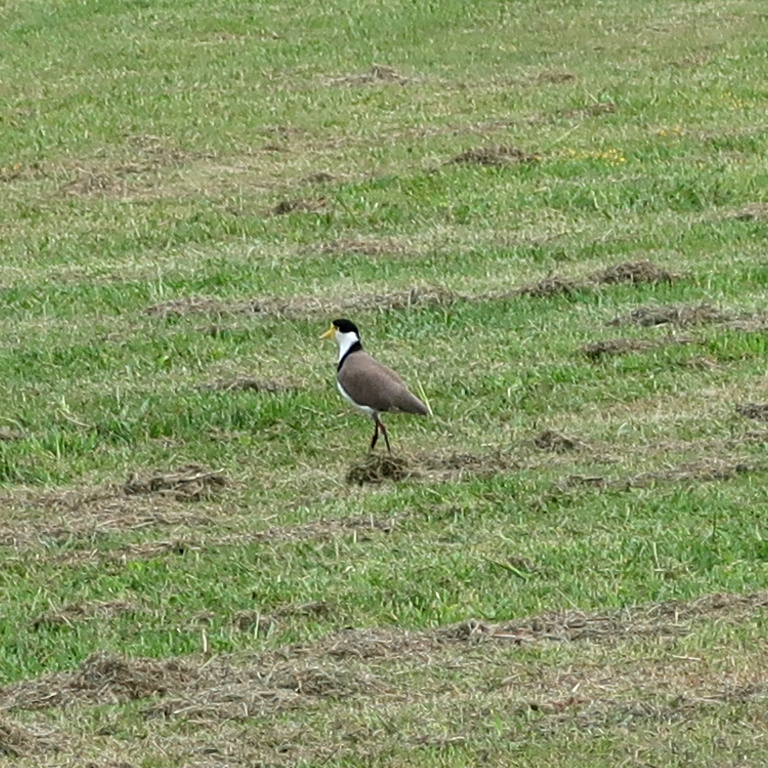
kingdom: Animalia
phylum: Chordata
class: Aves
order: Charadriiformes
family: Charadriidae
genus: Vanellus
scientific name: Vanellus miles
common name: Masked lapwing
